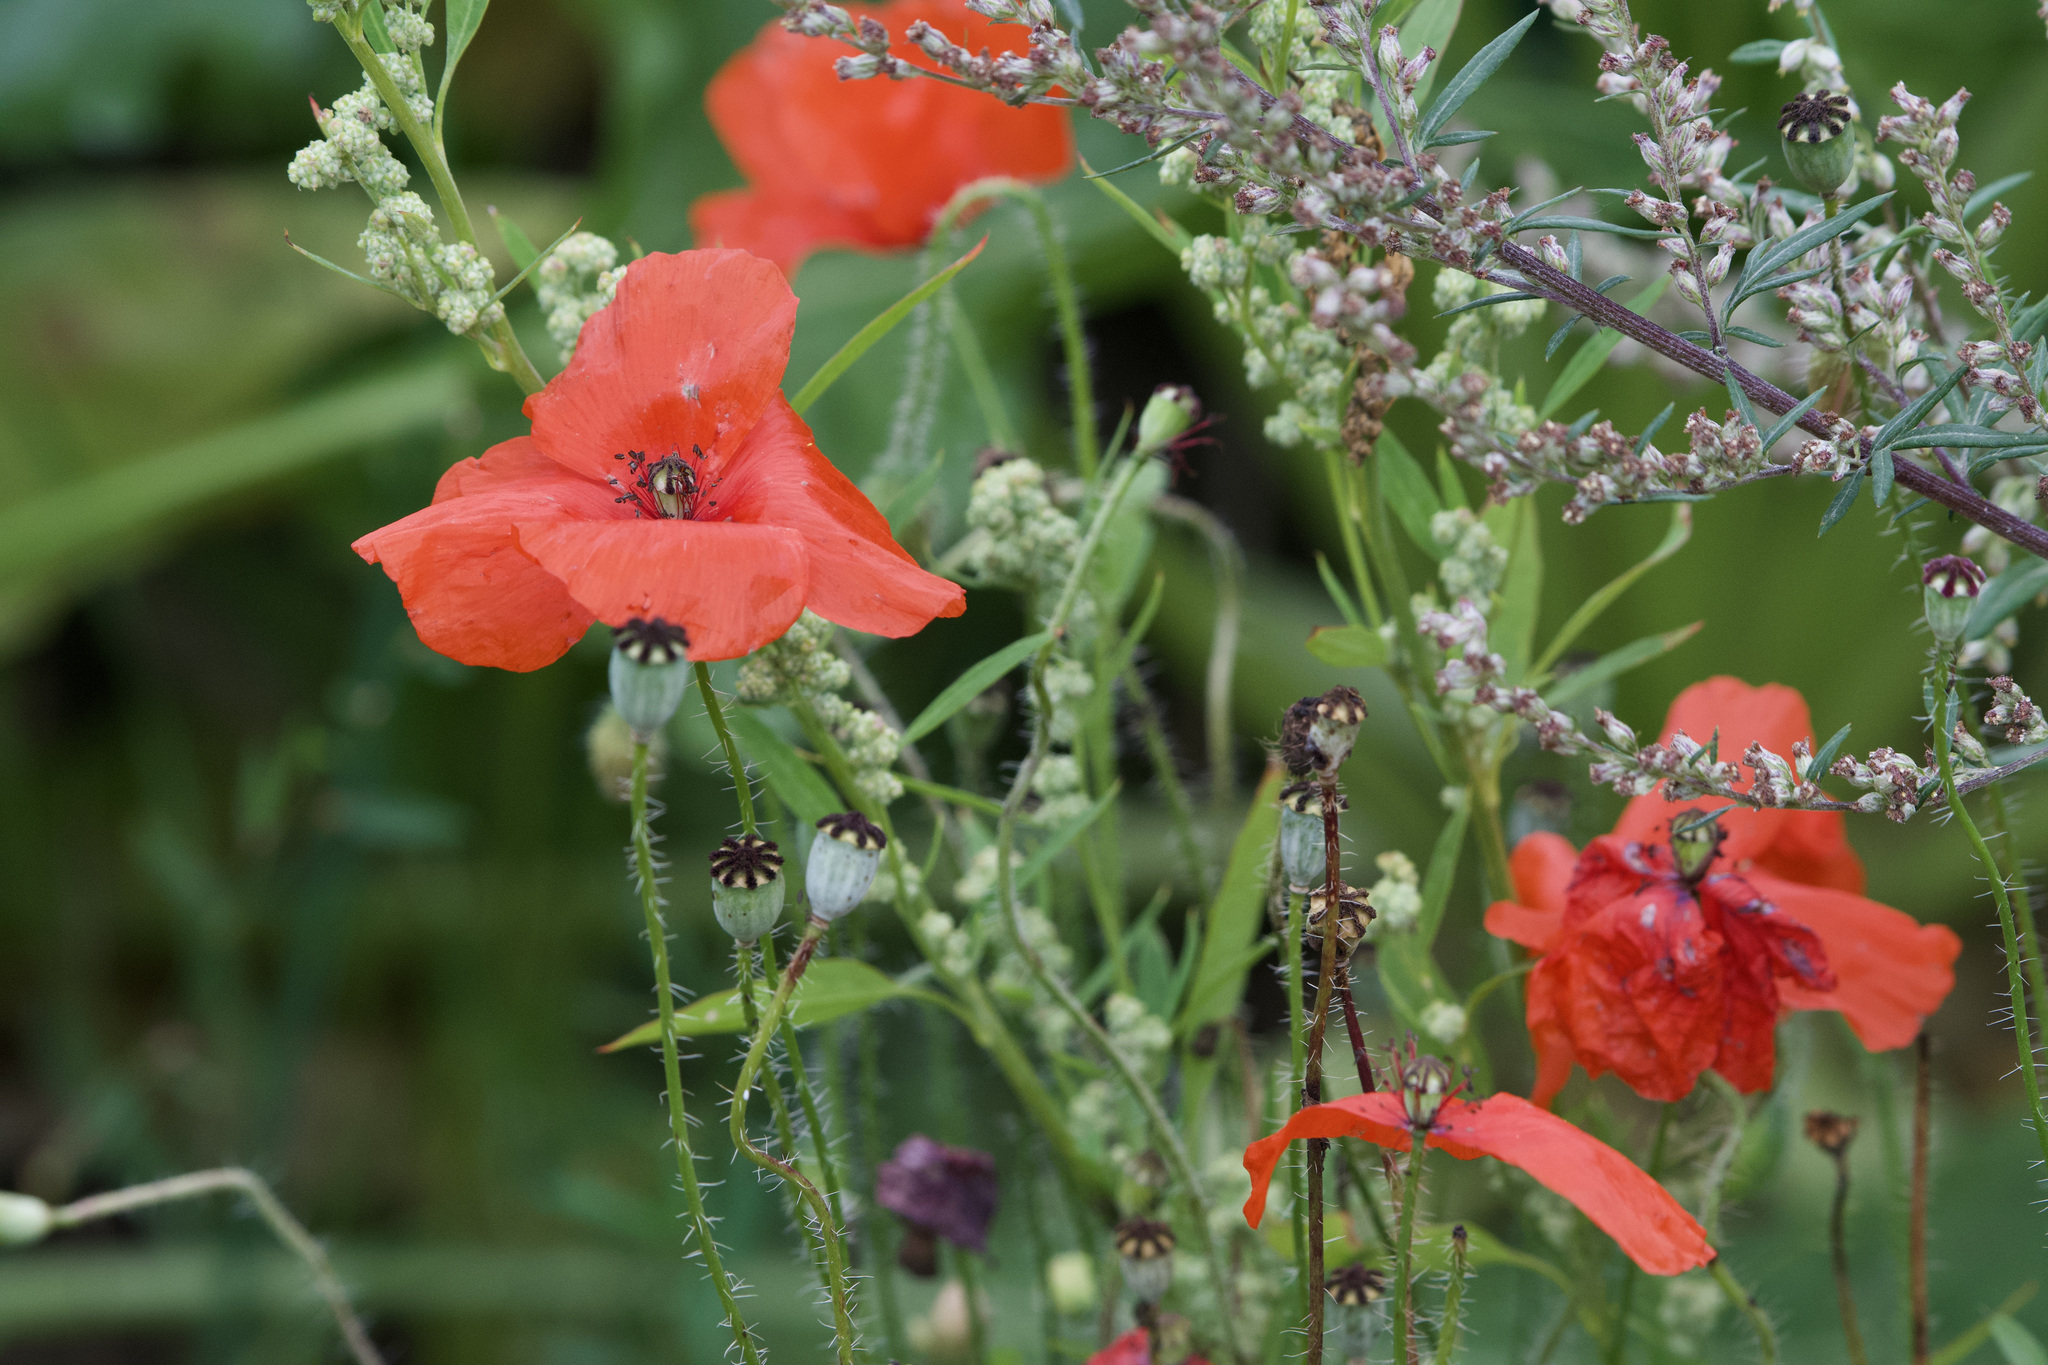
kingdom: Plantae
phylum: Tracheophyta
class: Magnoliopsida
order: Ranunculales
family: Papaveraceae
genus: Papaver
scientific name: Papaver rhoeas
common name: Corn poppy
